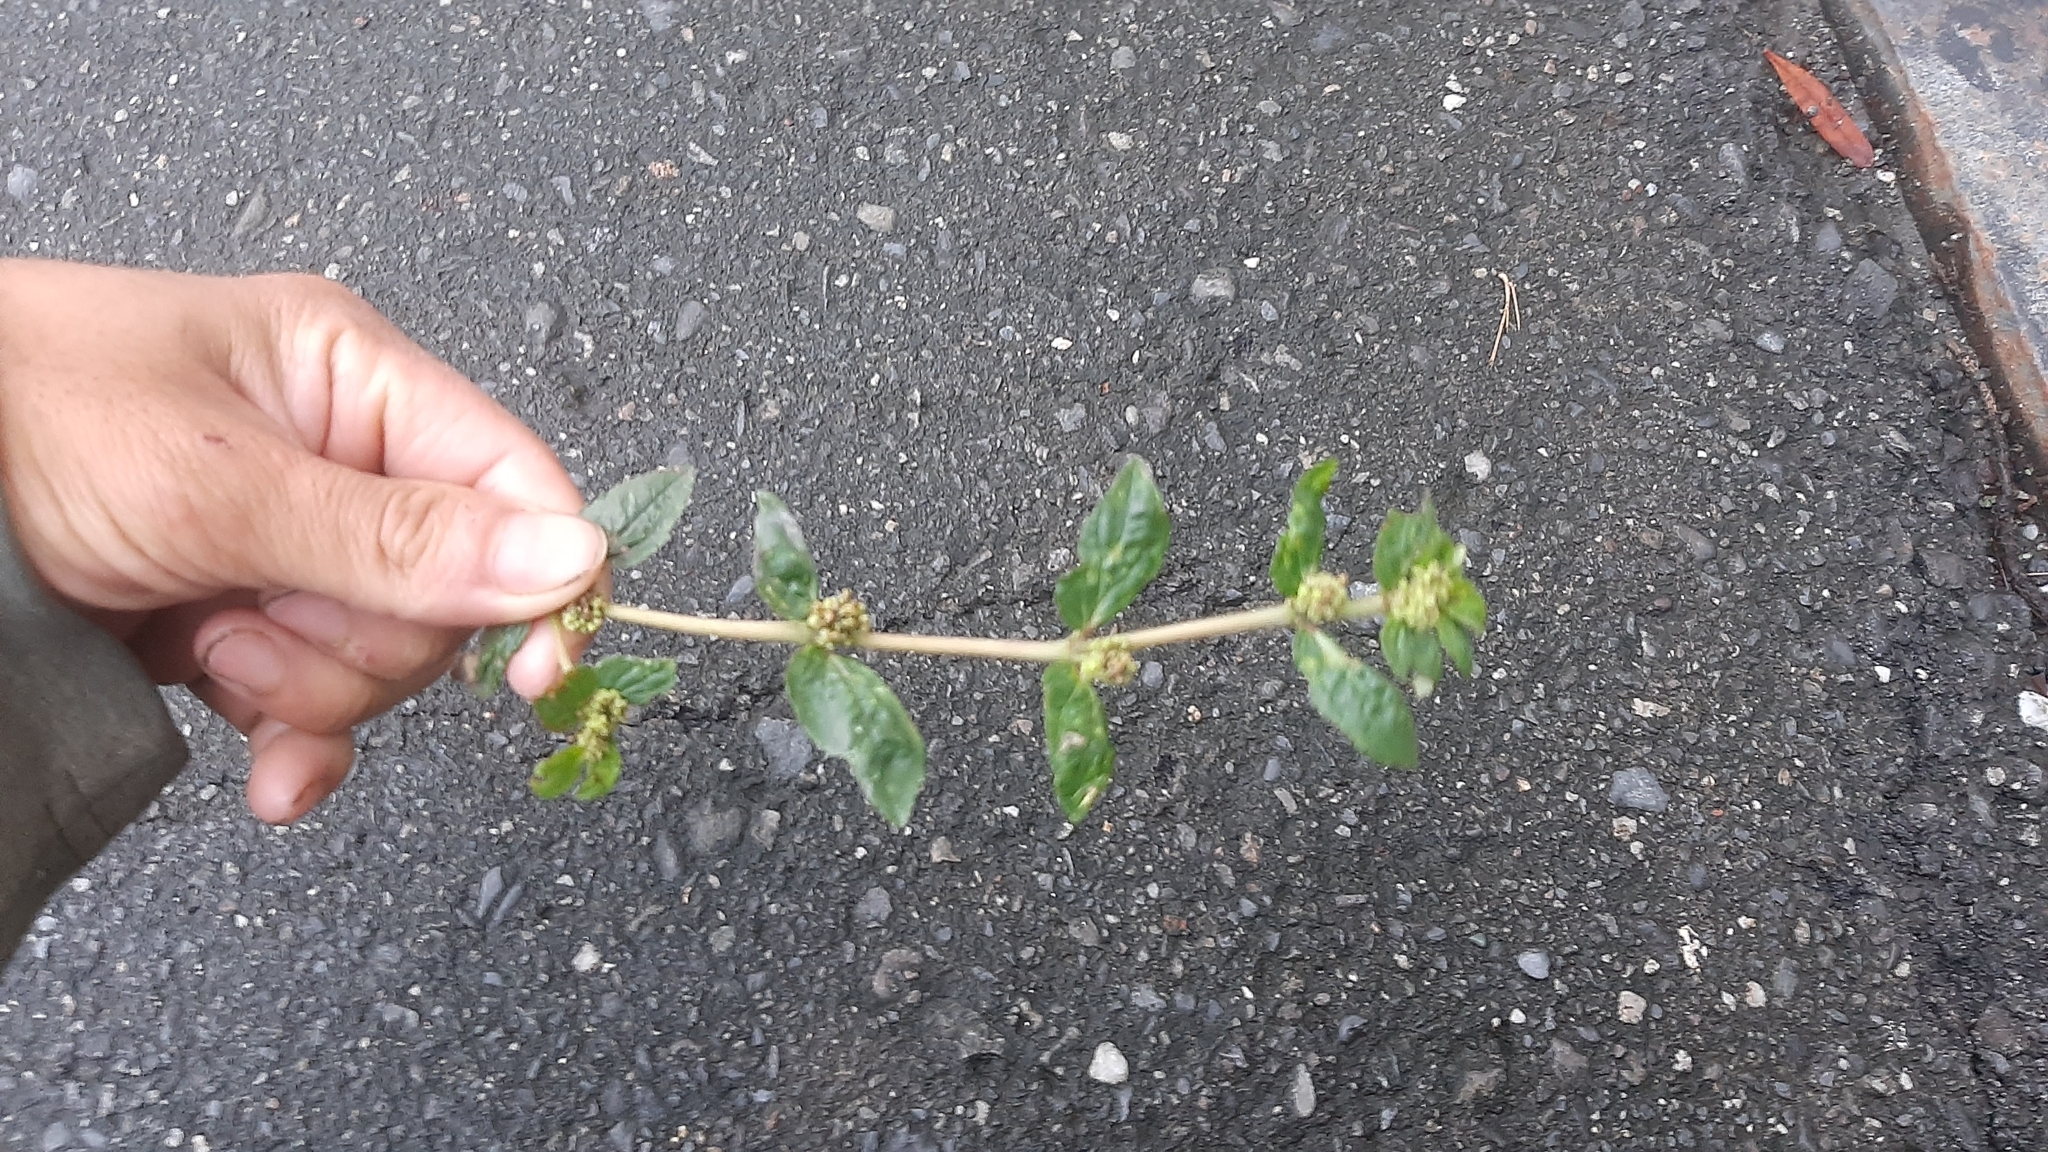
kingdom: Plantae
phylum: Tracheophyta
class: Magnoliopsida
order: Malpighiales
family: Euphorbiaceae
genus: Euphorbia
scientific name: Euphorbia hirta
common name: Pillpod sandmat
